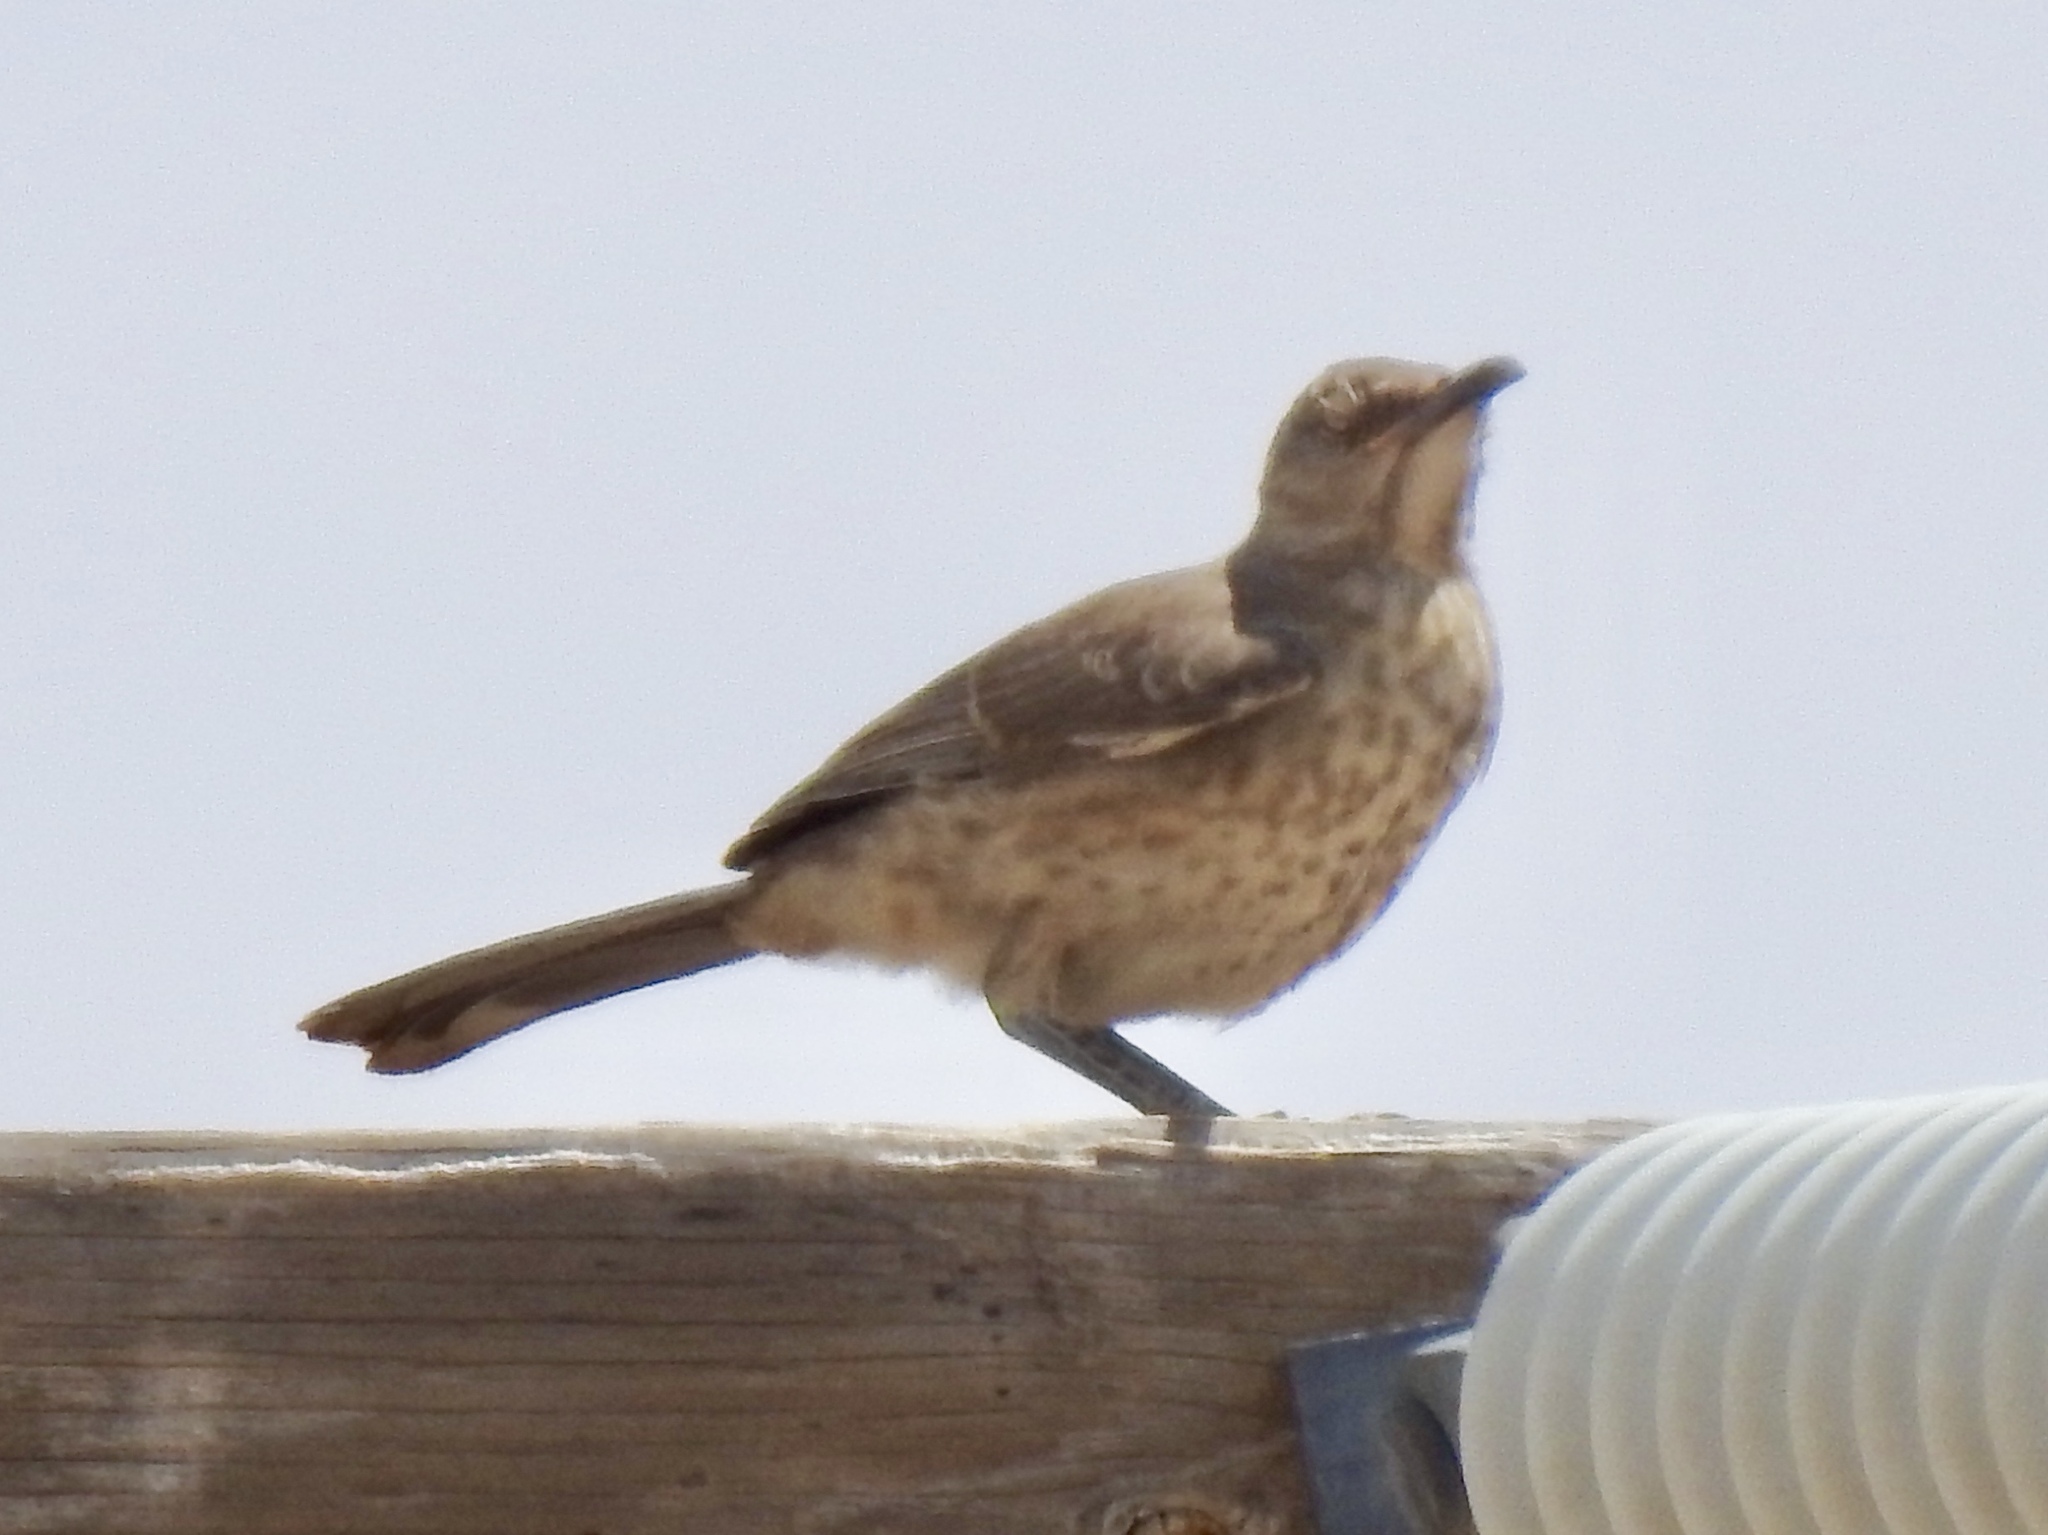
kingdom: Animalia
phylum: Chordata
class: Aves
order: Passeriformes
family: Mimidae
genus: Toxostoma
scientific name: Toxostoma curvirostre
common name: Curve-billed thrasher
